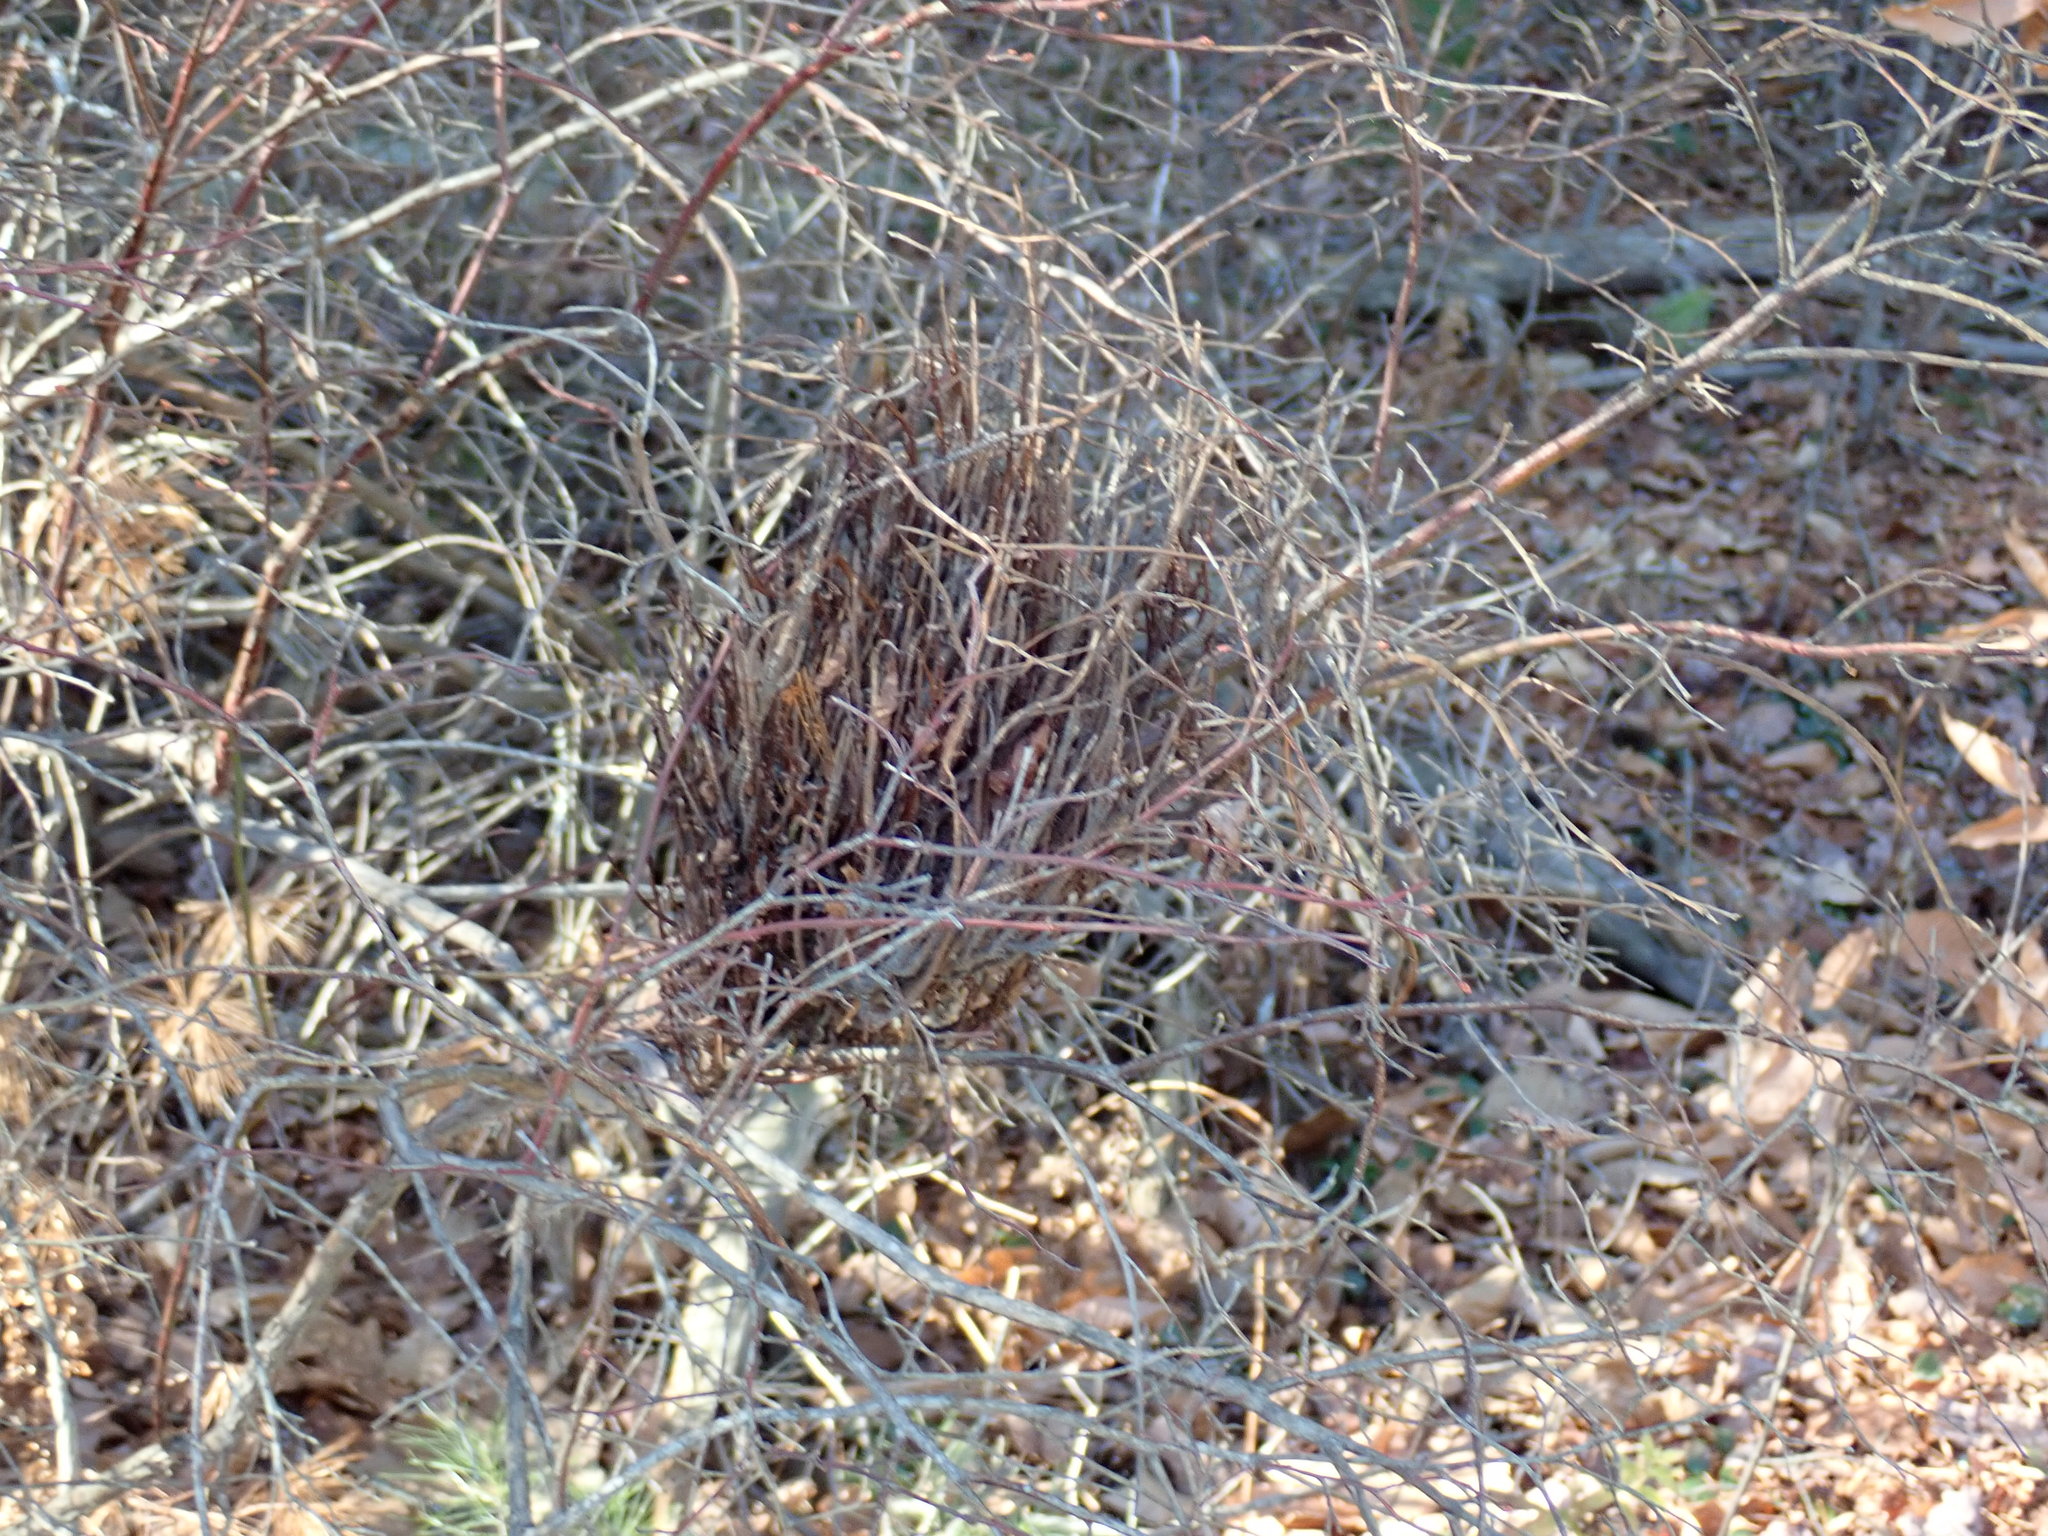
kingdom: Fungi
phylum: Basidiomycota
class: Pucciniomycetes
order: Pucciniales
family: Pucciniastraceae
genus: Calyptospora
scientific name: Calyptospora columnaris
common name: Huckleberry broom rust fungus
